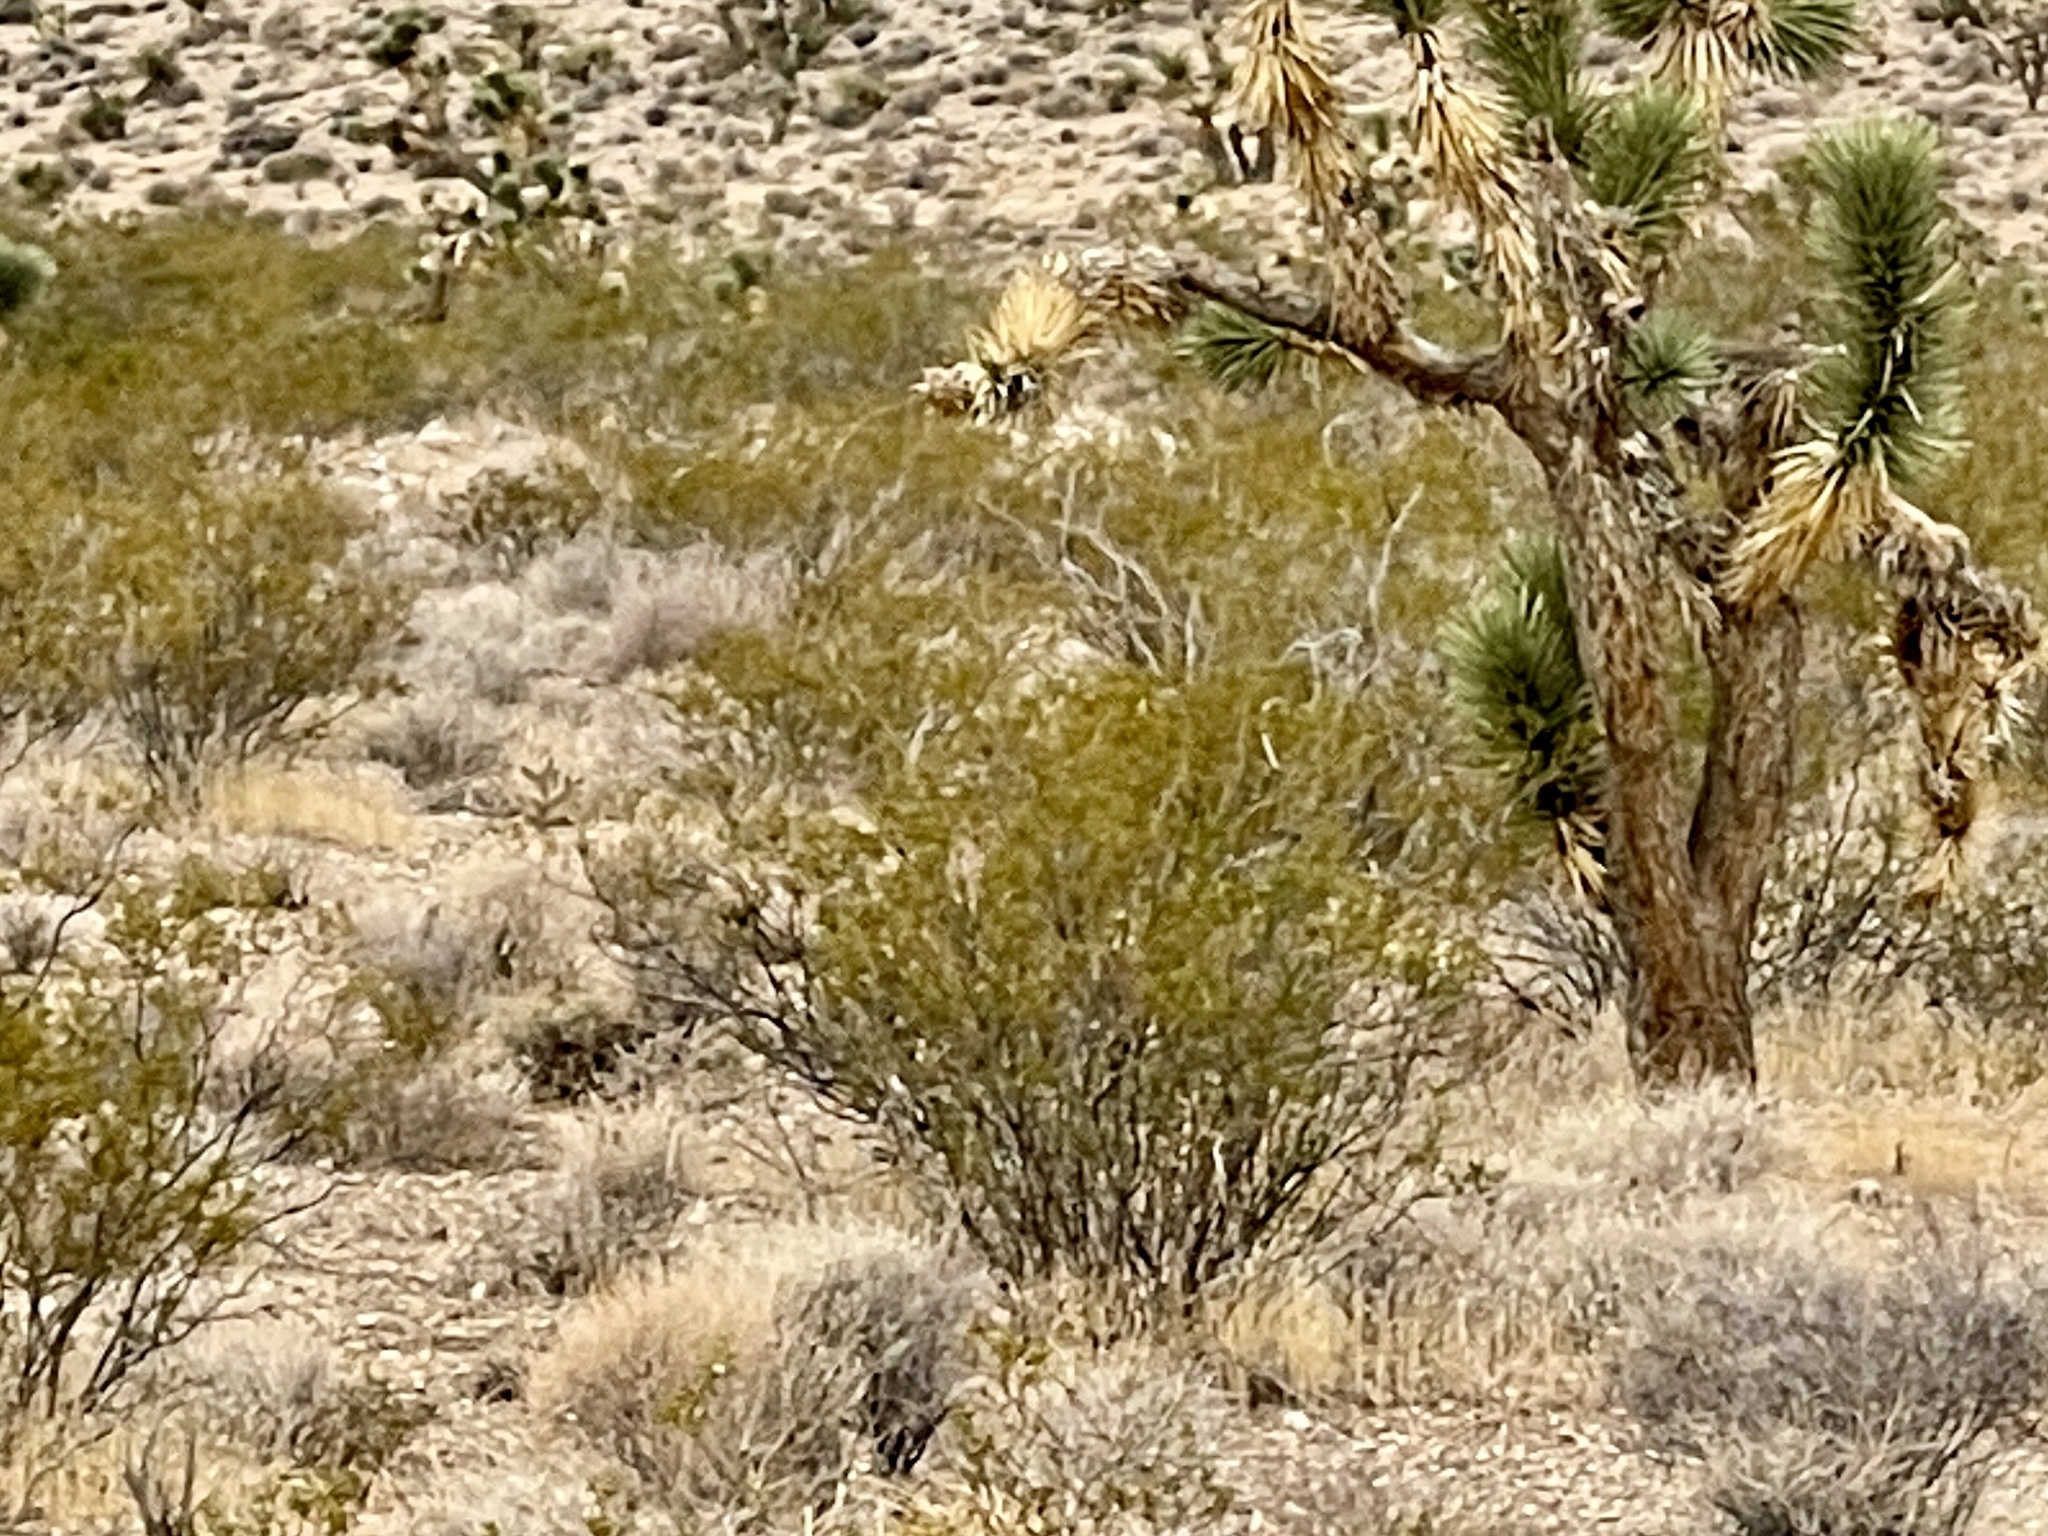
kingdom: Plantae
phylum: Tracheophyta
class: Magnoliopsida
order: Zygophyllales
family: Zygophyllaceae
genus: Larrea
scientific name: Larrea tridentata
